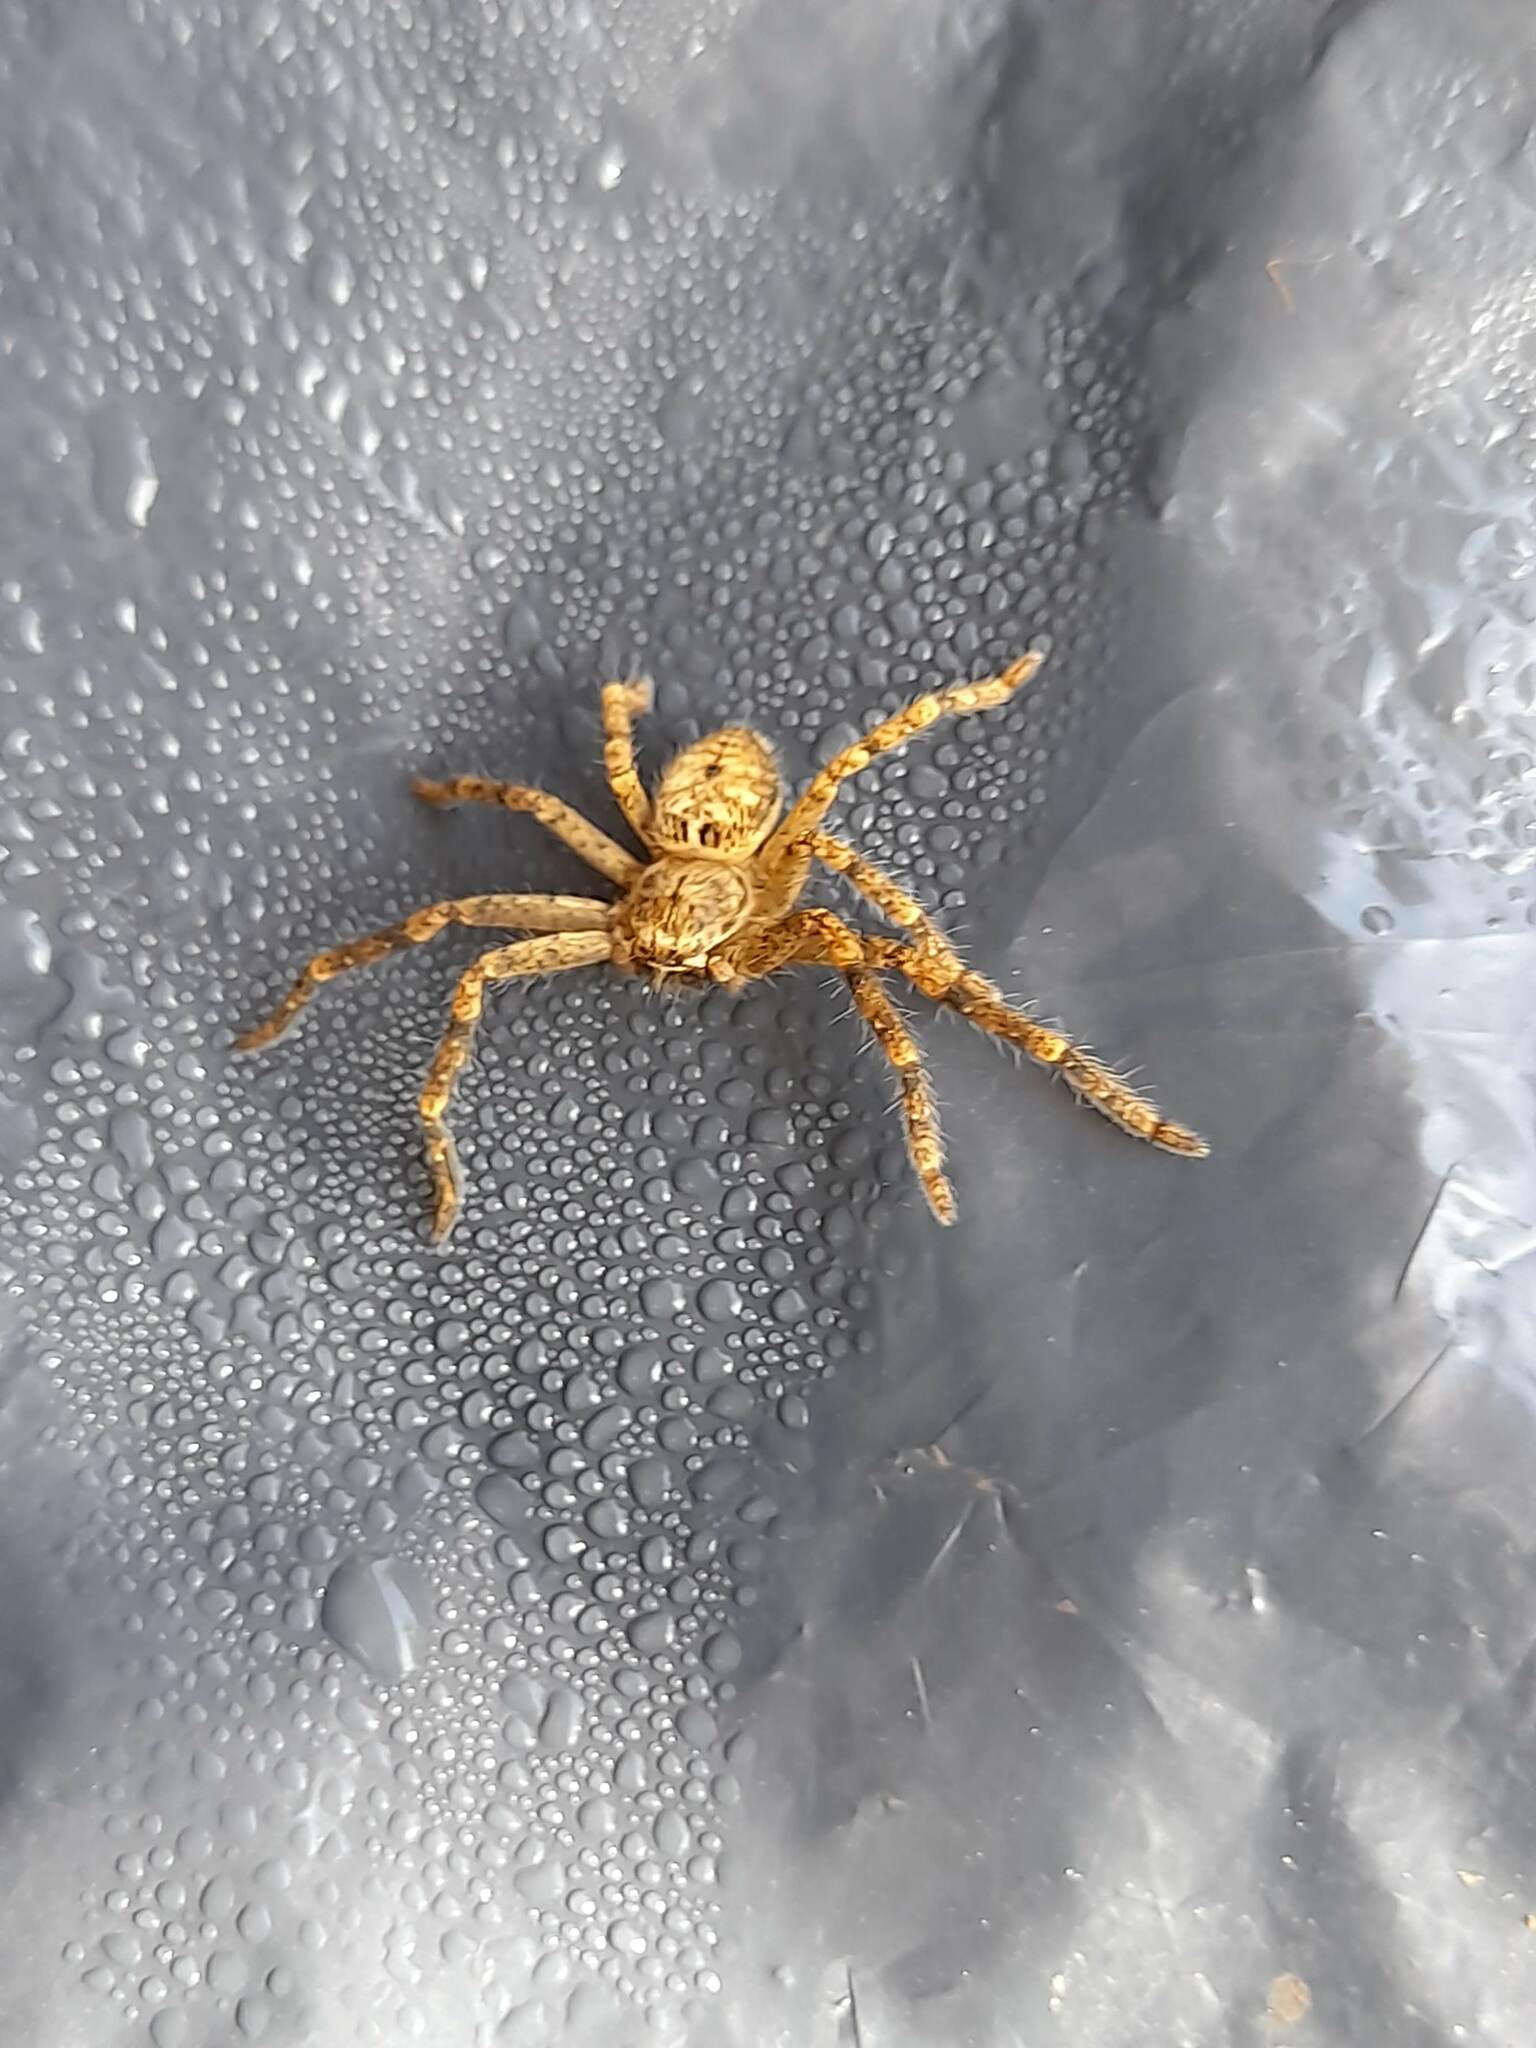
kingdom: Animalia
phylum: Arthropoda
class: Arachnida
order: Araneae
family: Sparassidae
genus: Polybetes
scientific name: Polybetes rapidus
